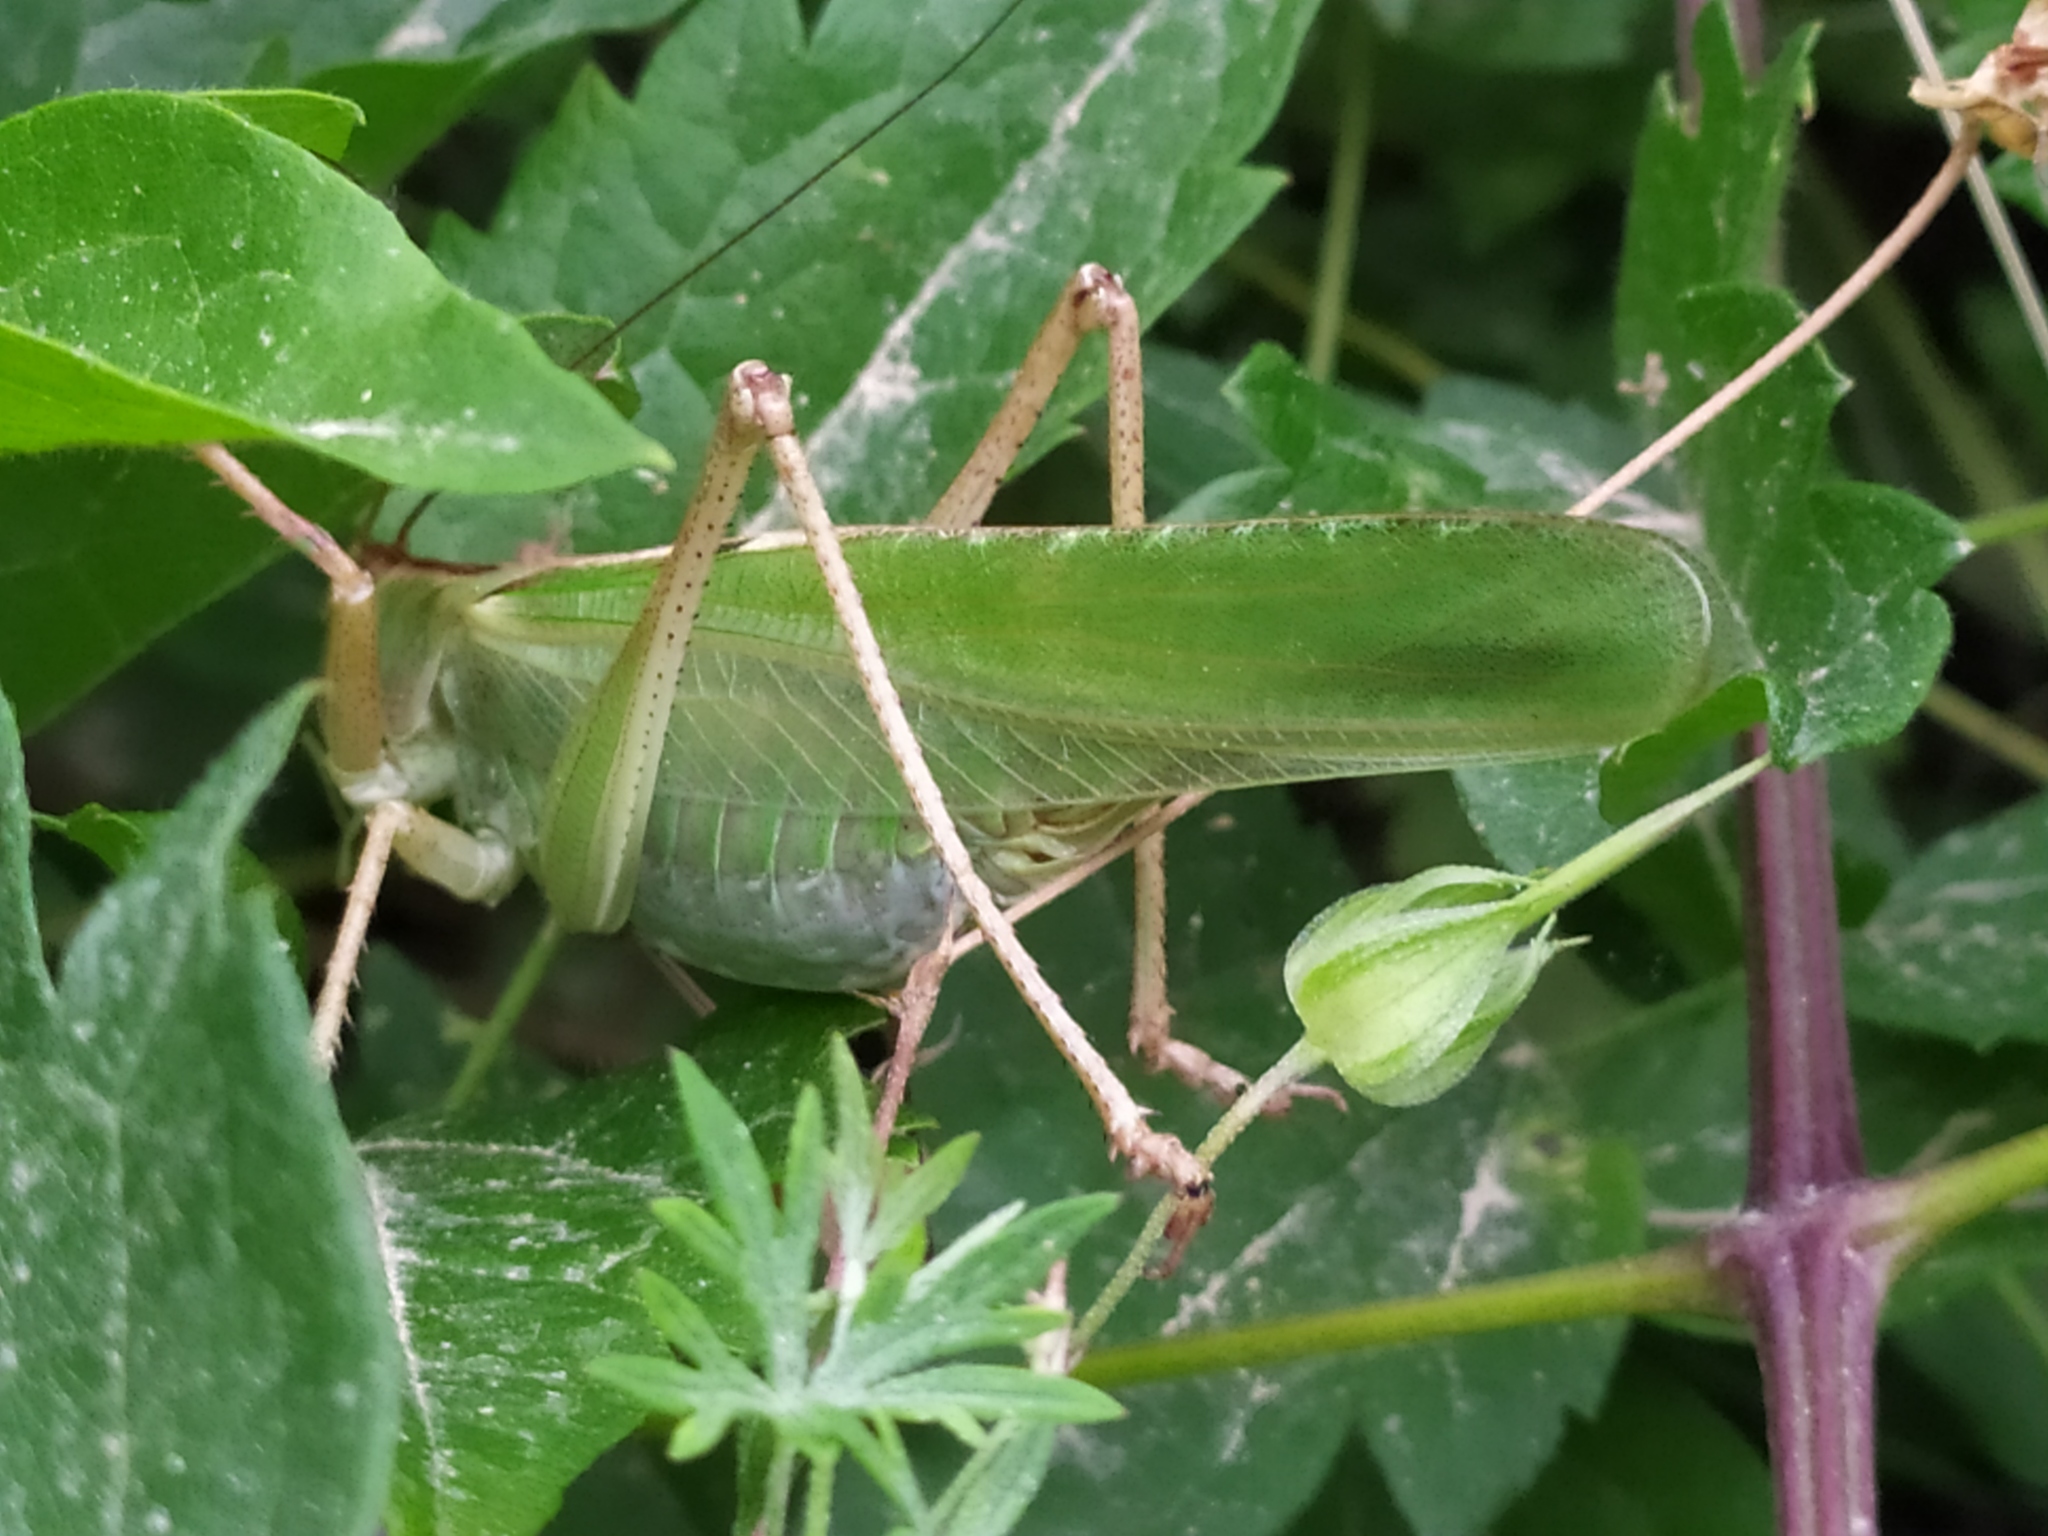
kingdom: Animalia
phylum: Arthropoda
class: Insecta
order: Orthoptera
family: Tettigoniidae
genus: Tettigonia
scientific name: Tettigonia viridissima
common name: Great green bush-cricket
